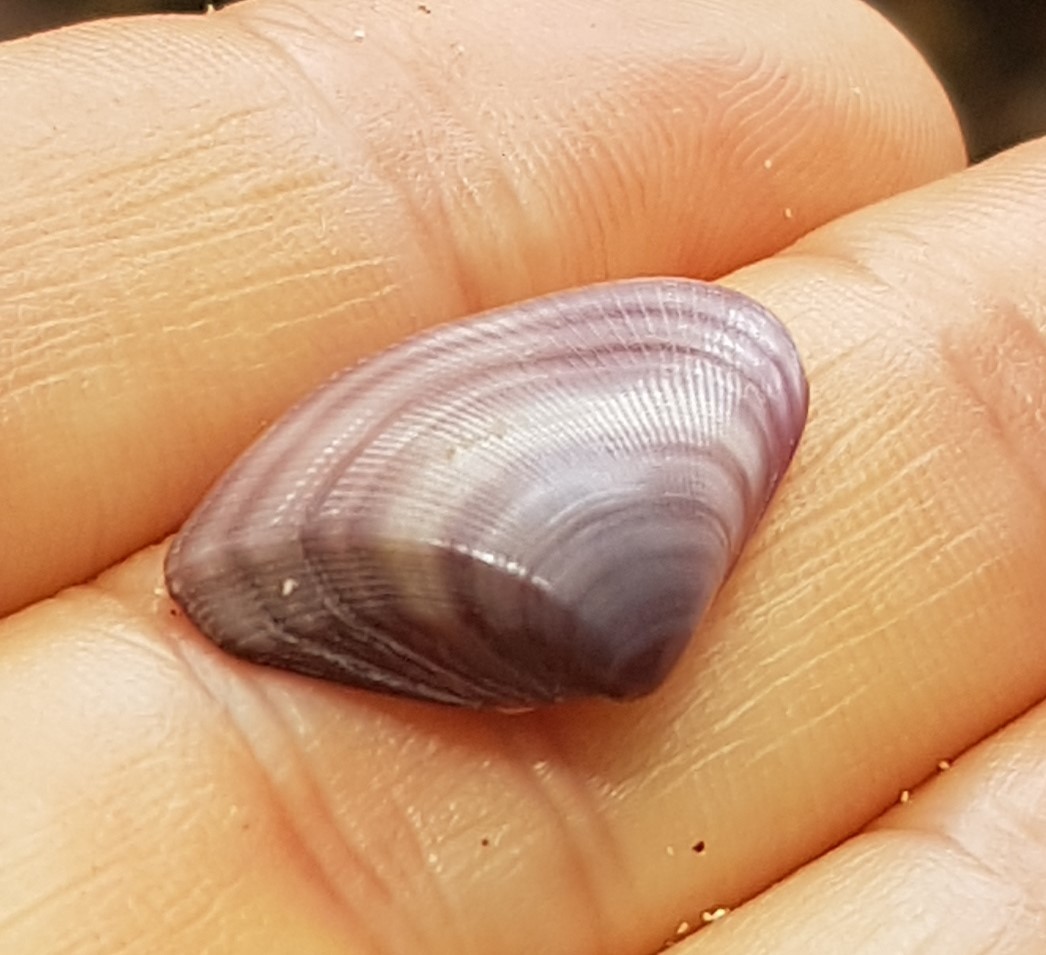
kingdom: Animalia
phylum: Mollusca
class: Bivalvia
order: Cardiida
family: Donacidae
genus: Donax
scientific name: Donax denticulatus
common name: Common caribbean coquina
